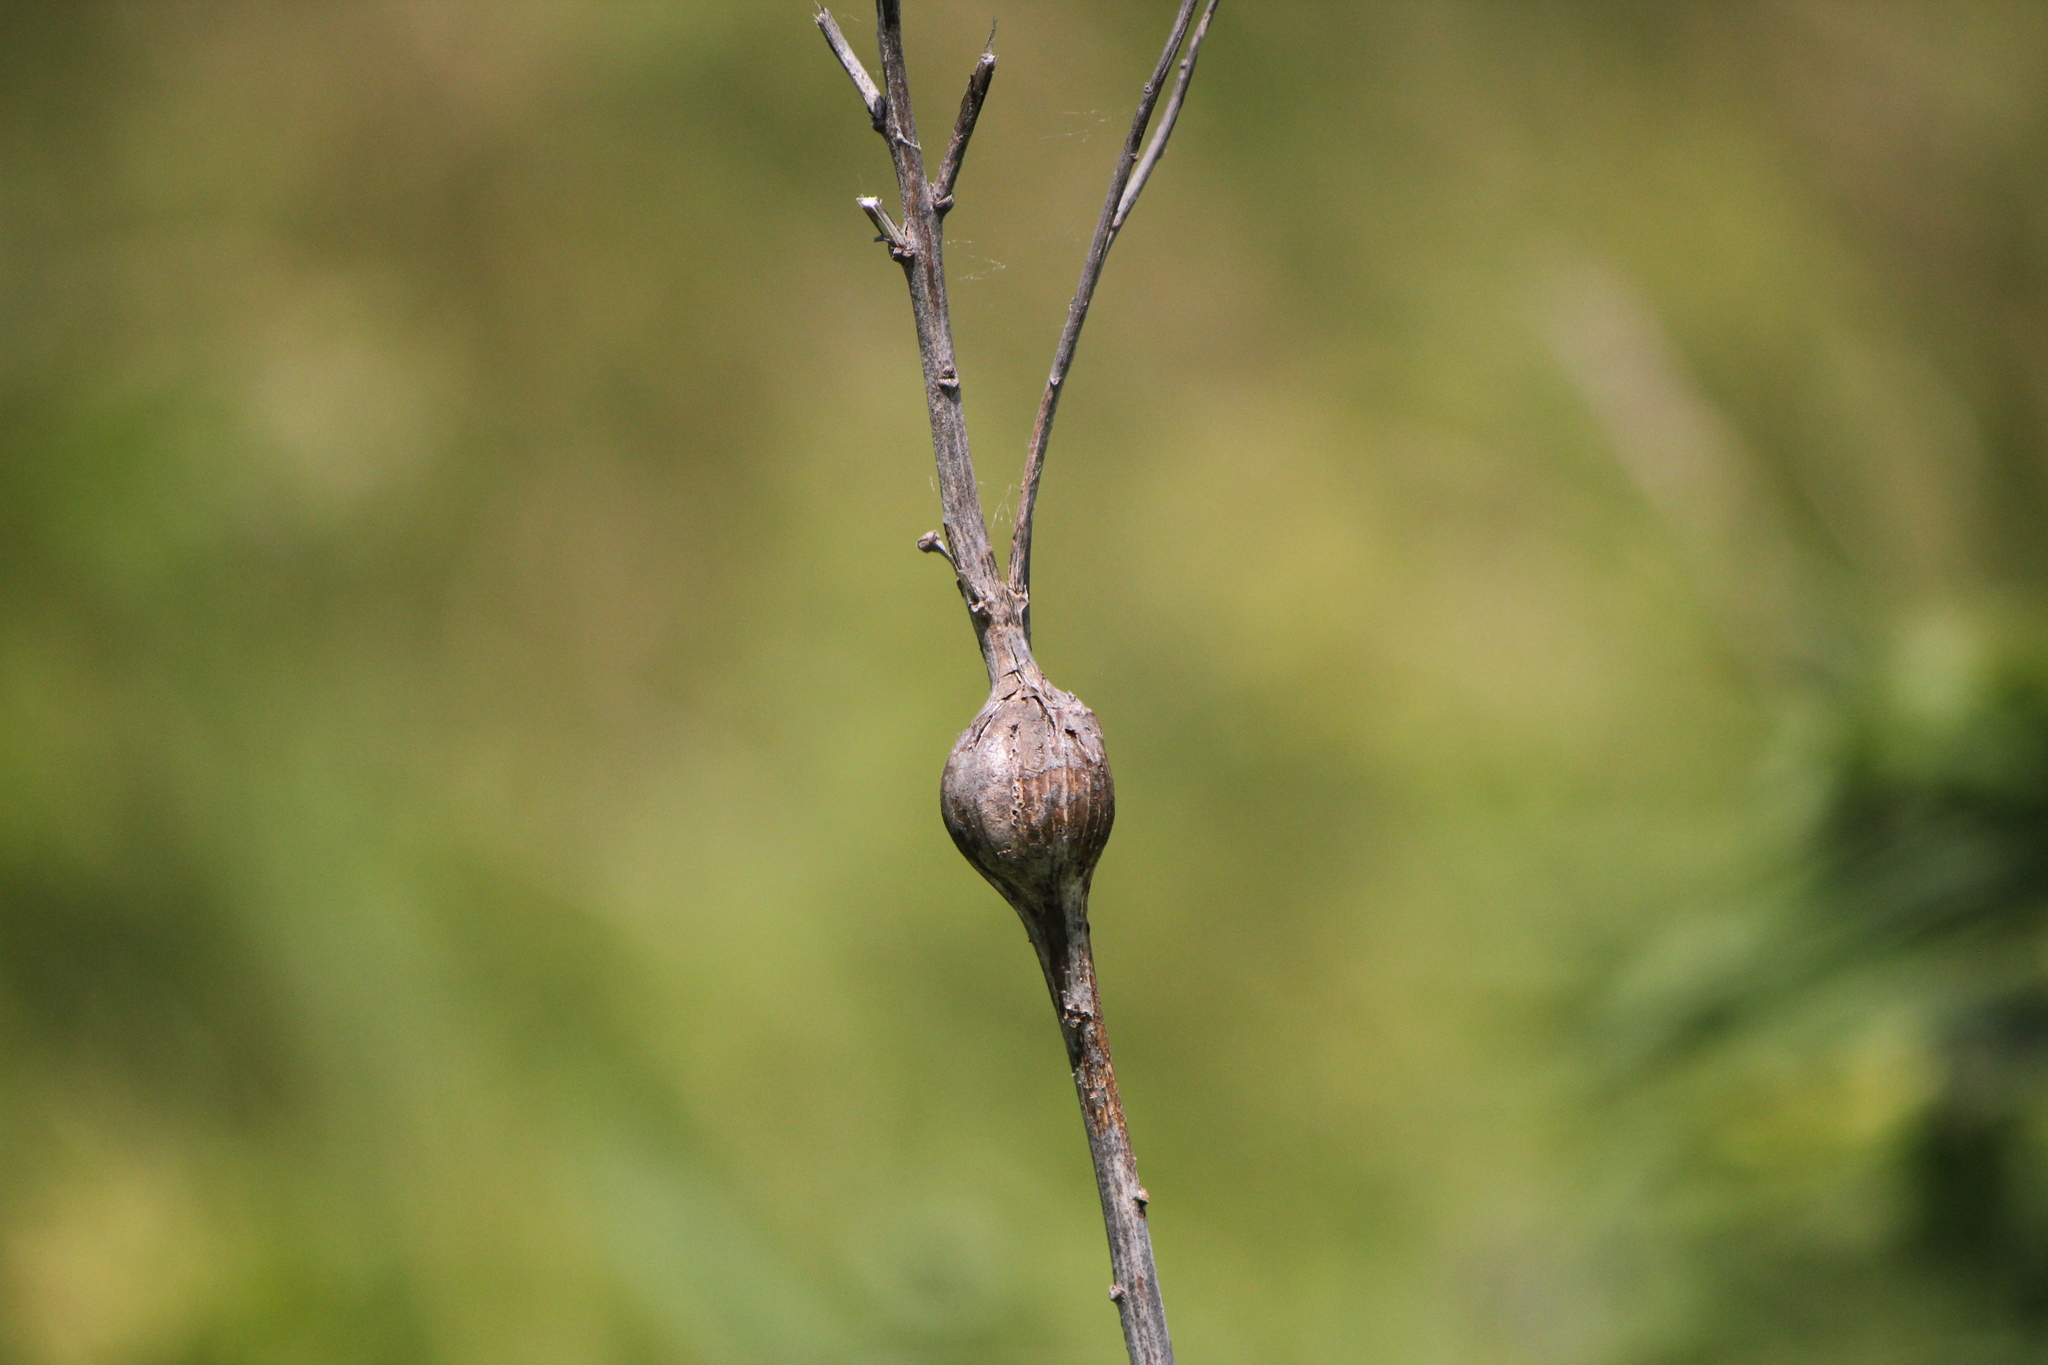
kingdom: Animalia
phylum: Arthropoda
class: Insecta
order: Diptera
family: Tephritidae
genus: Eurosta
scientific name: Eurosta solidaginis
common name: Goldenrod gall fly
